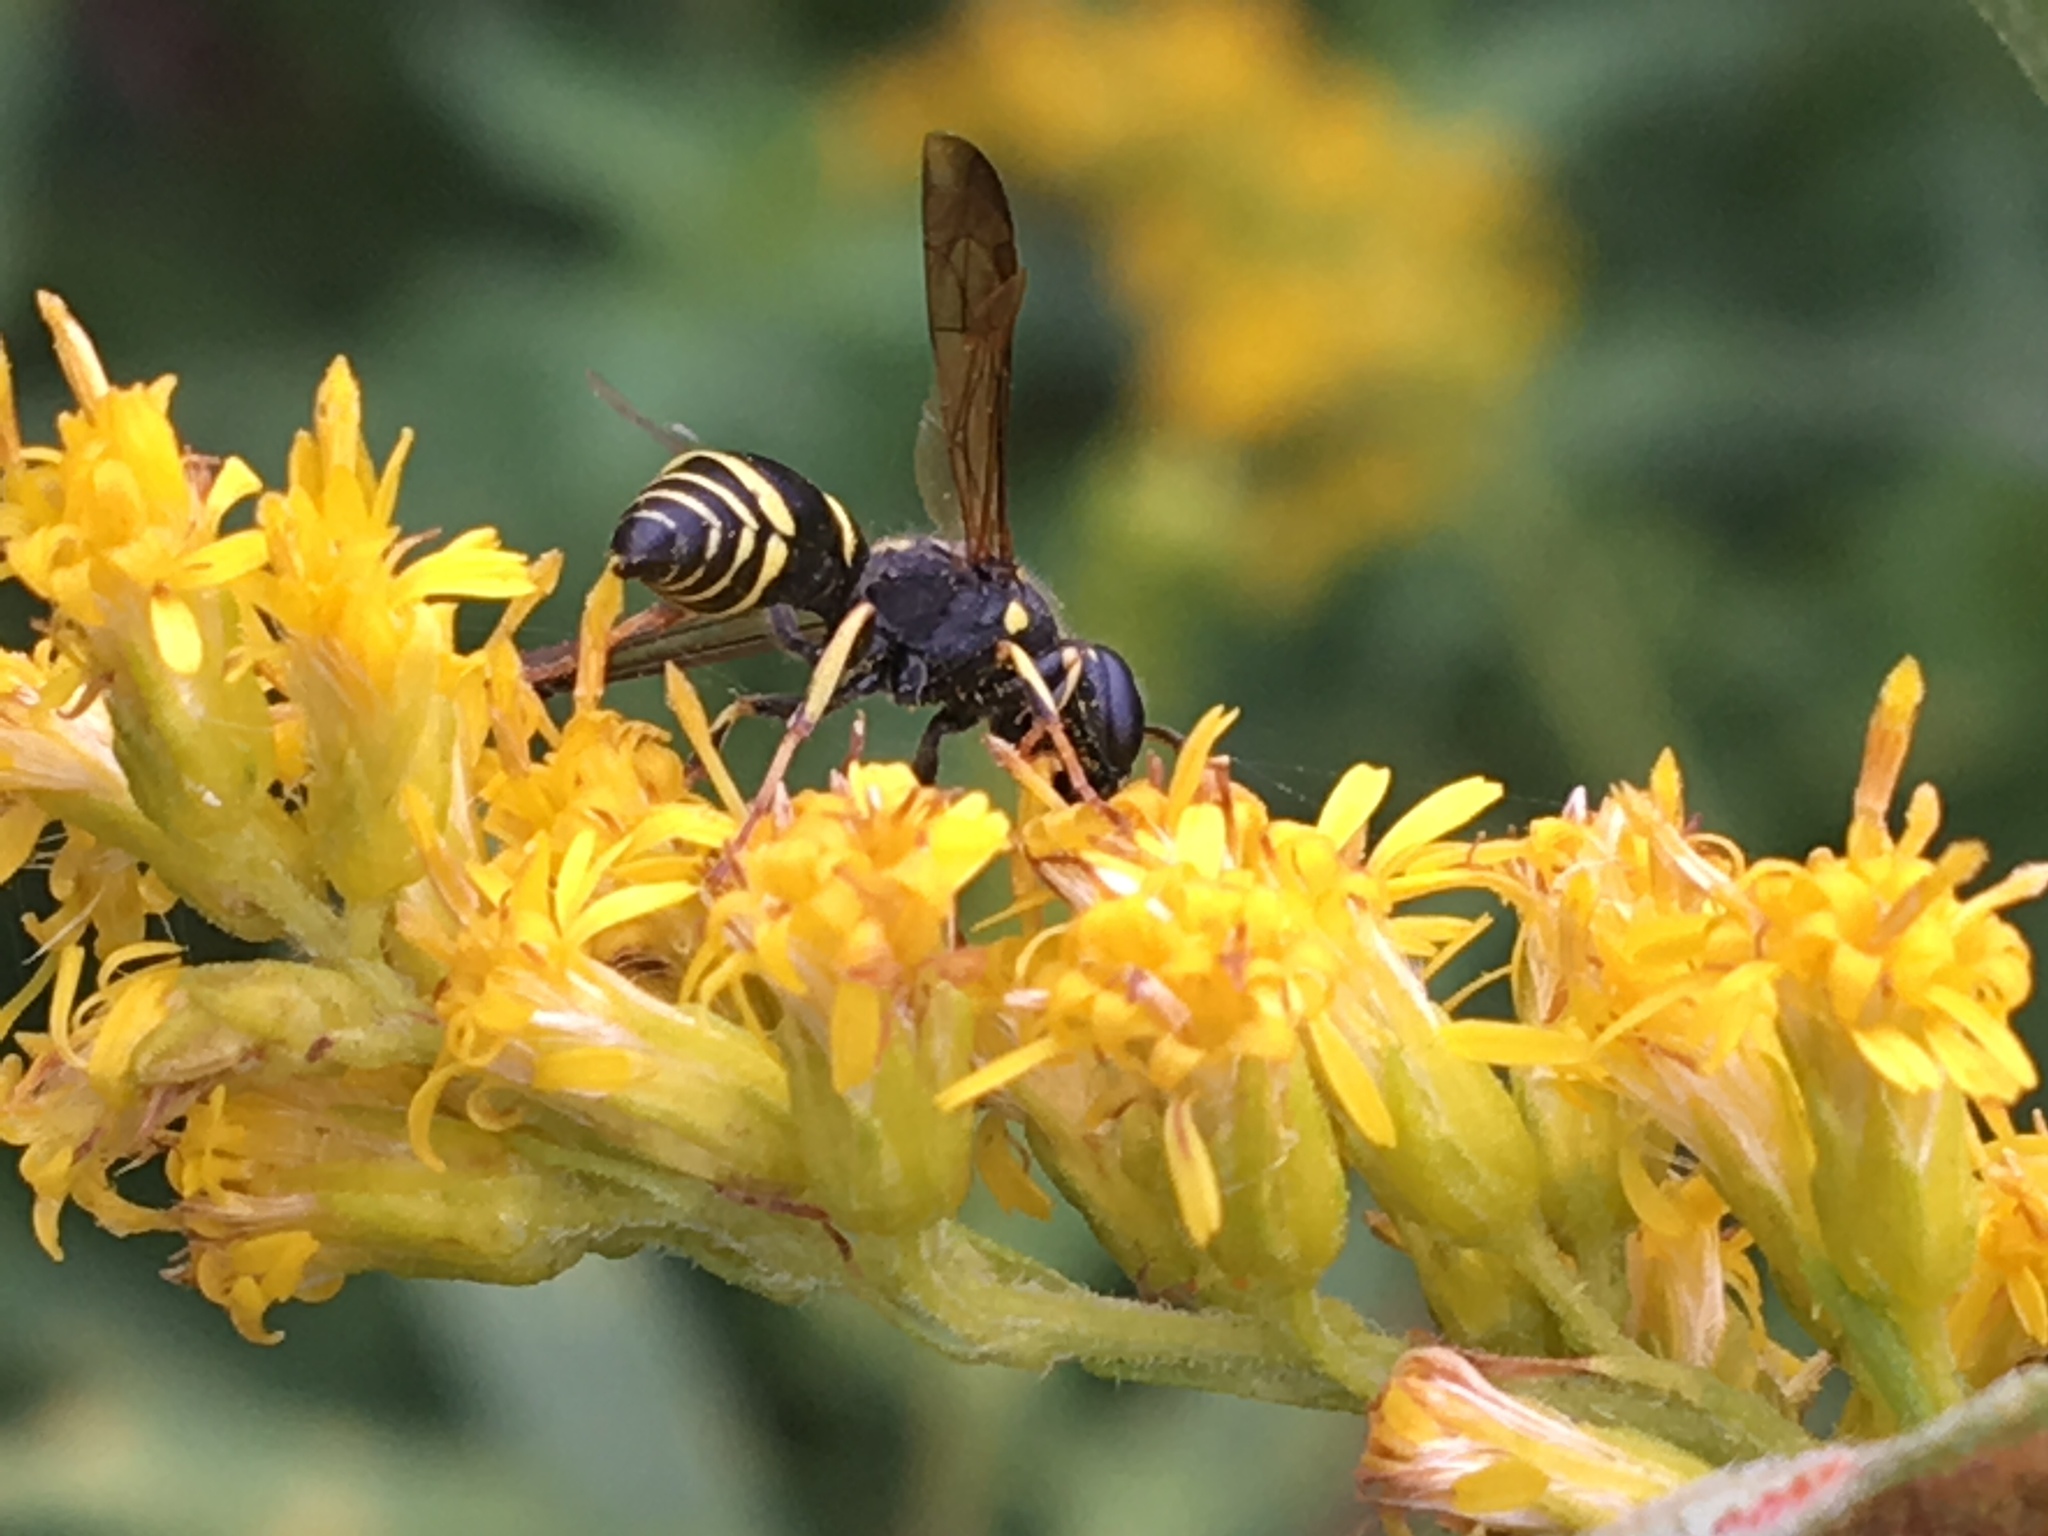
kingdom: Animalia
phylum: Arthropoda
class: Insecta
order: Hymenoptera
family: Vespidae
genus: Ancistrocerus
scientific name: Ancistrocerus adiabatus
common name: Bramble mason wasp
